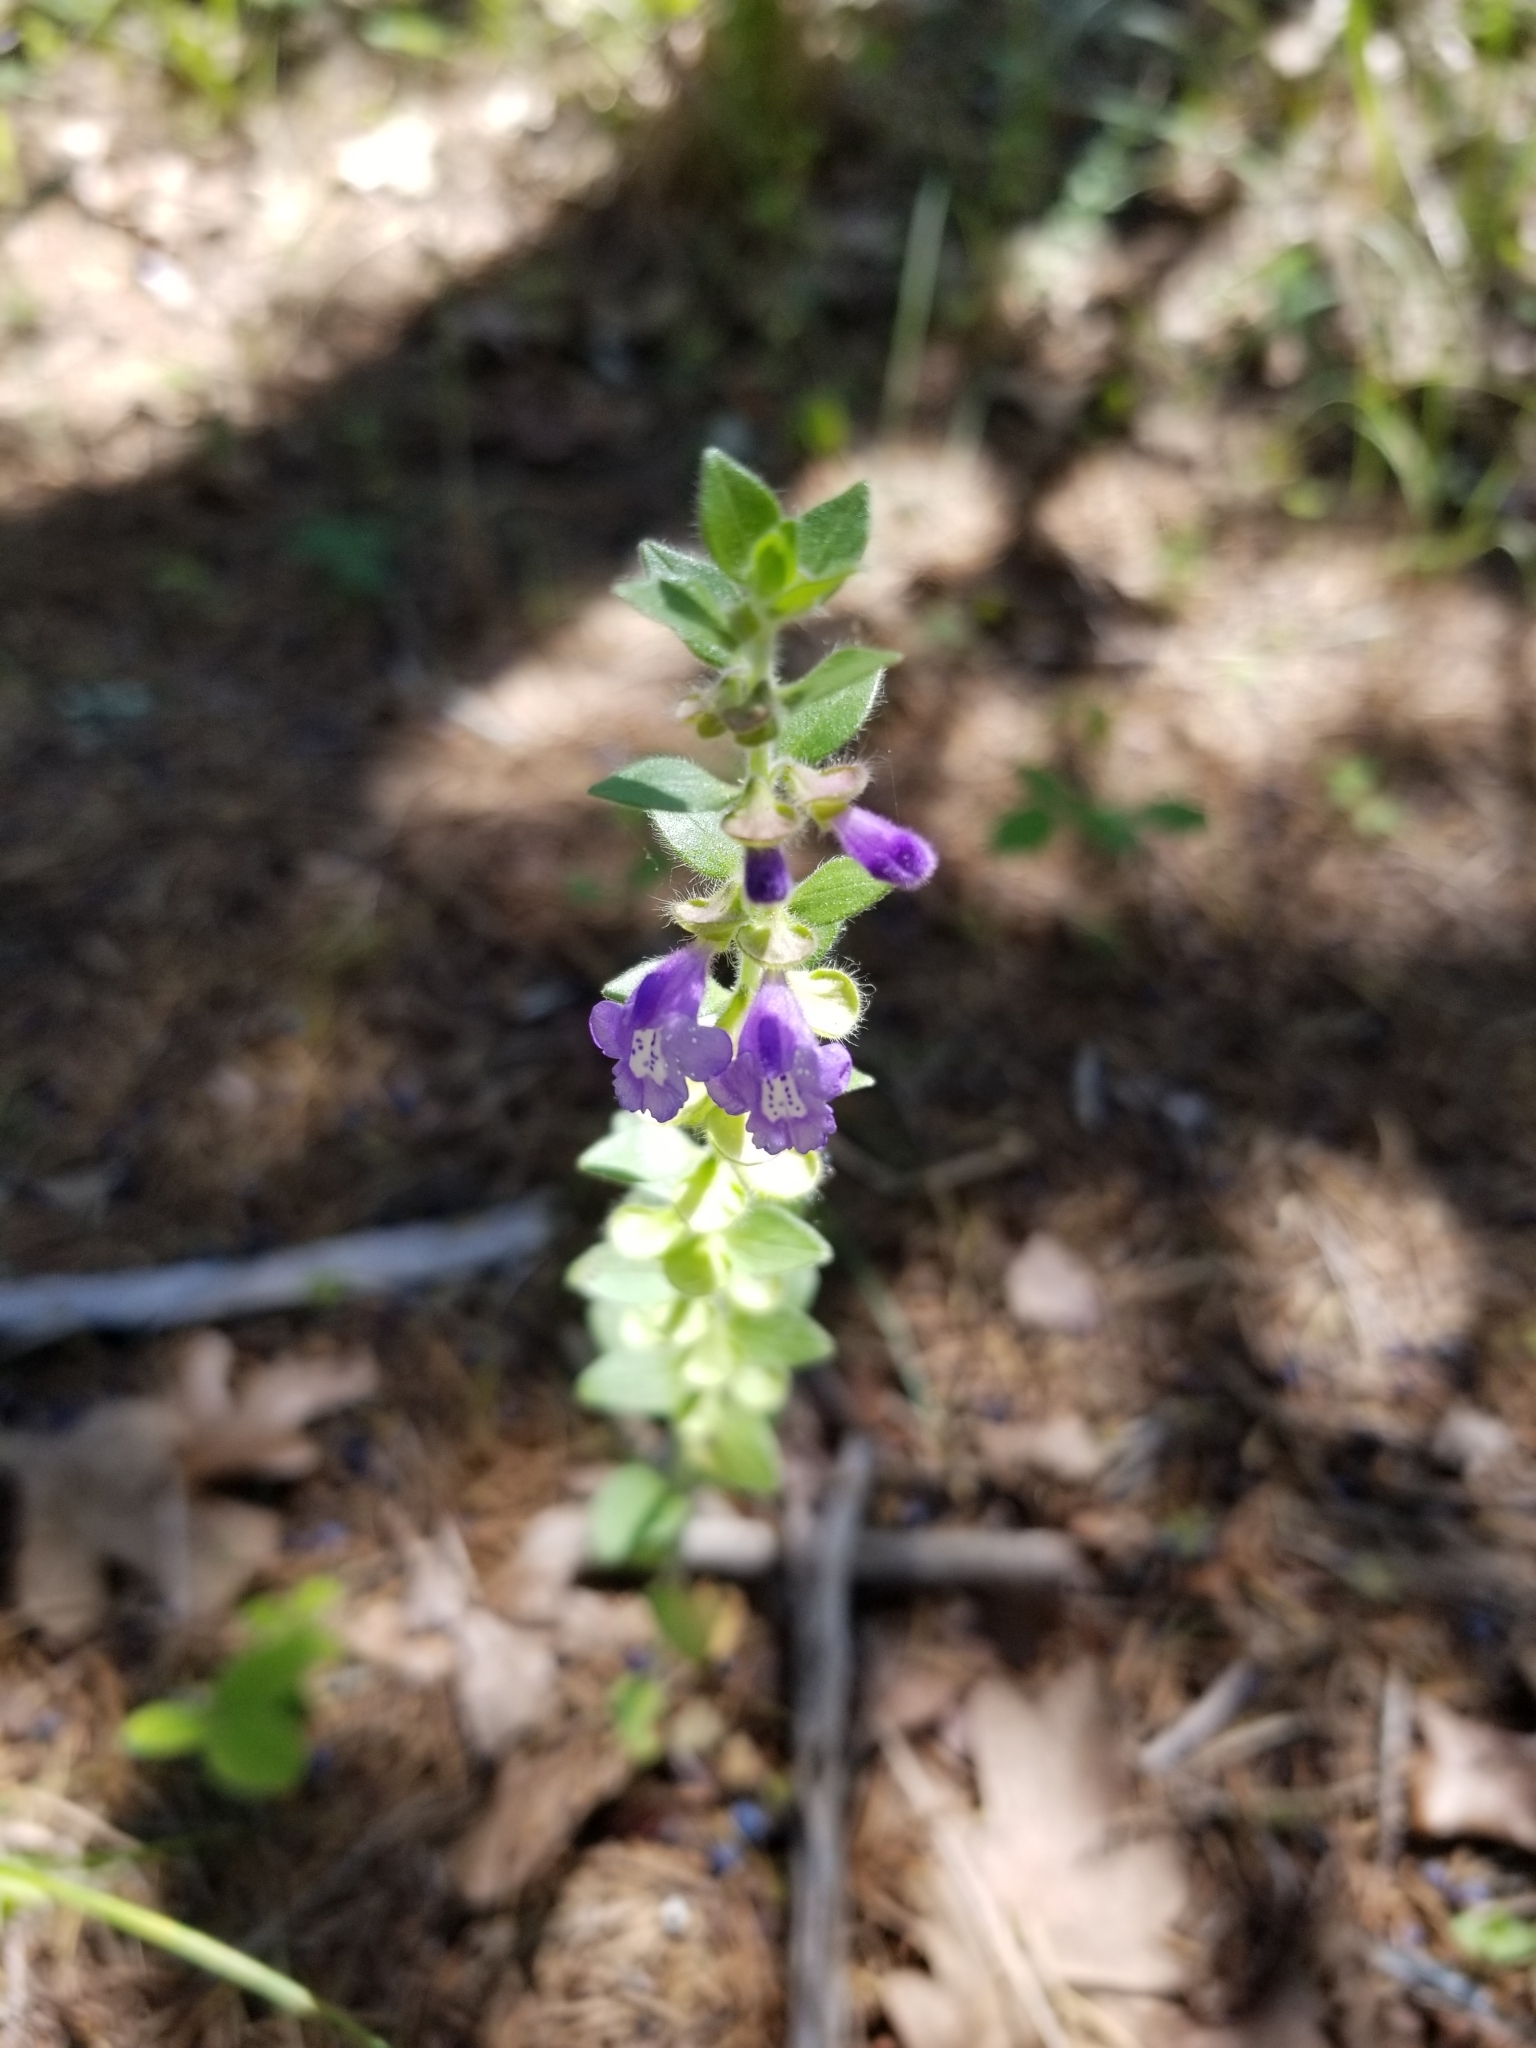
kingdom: Plantae
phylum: Tracheophyta
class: Magnoliopsida
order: Lamiales
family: Lamiaceae
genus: Scutellaria
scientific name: Scutellaria drummondii
